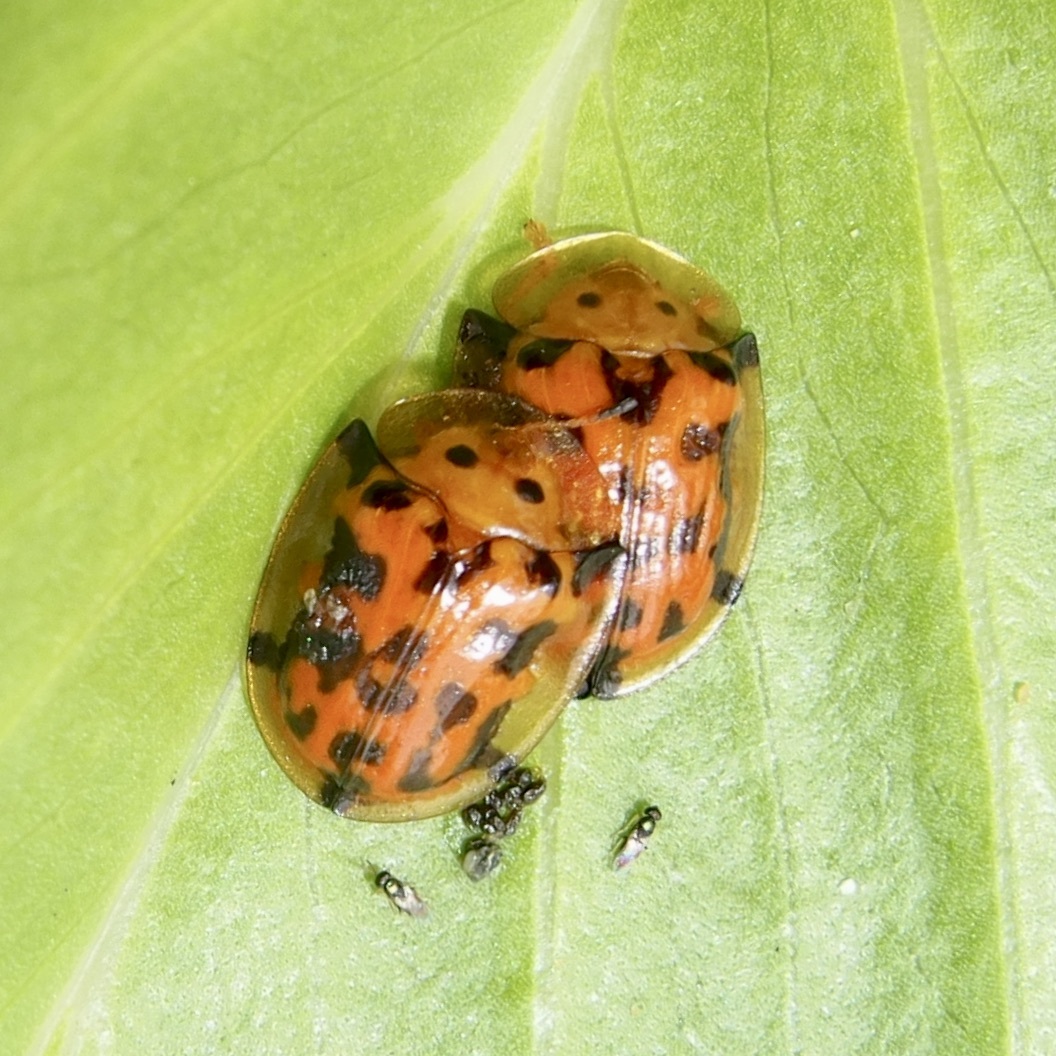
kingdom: Animalia
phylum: Arthropoda
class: Insecta
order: Coleoptera
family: Chrysomelidae
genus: Aspidimorpha
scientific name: Aspidimorpha deusta
